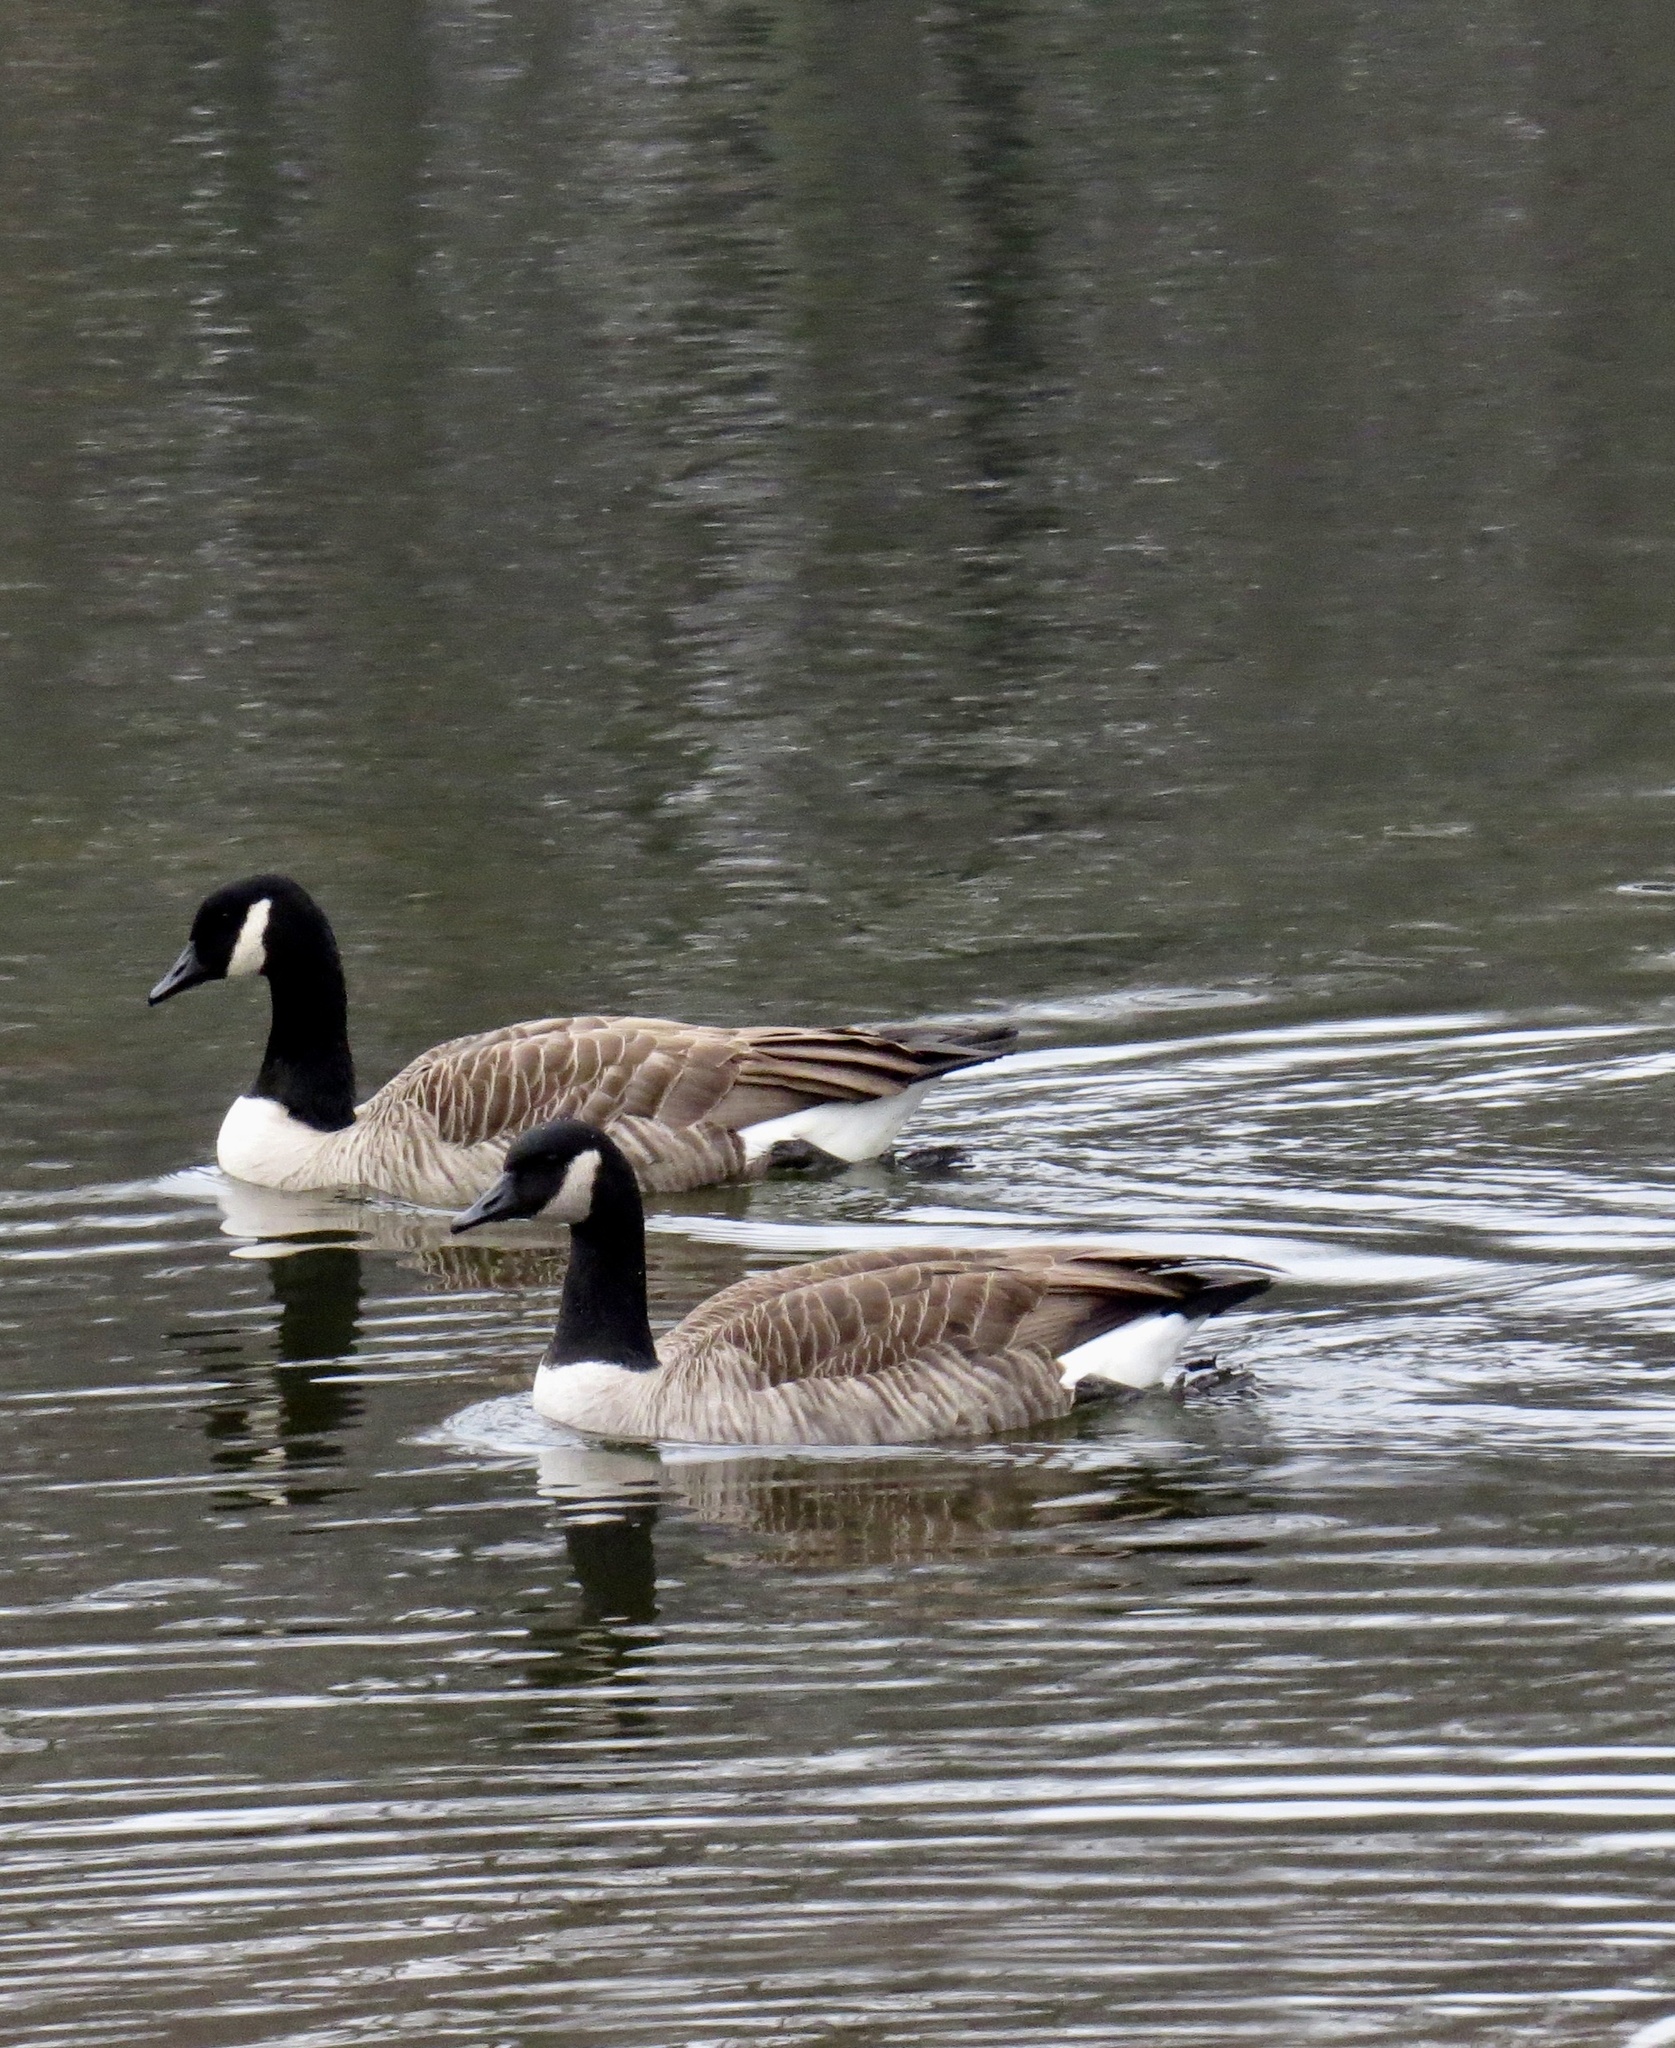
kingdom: Animalia
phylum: Chordata
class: Aves
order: Anseriformes
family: Anatidae
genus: Branta
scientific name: Branta canadensis
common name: Canada goose
